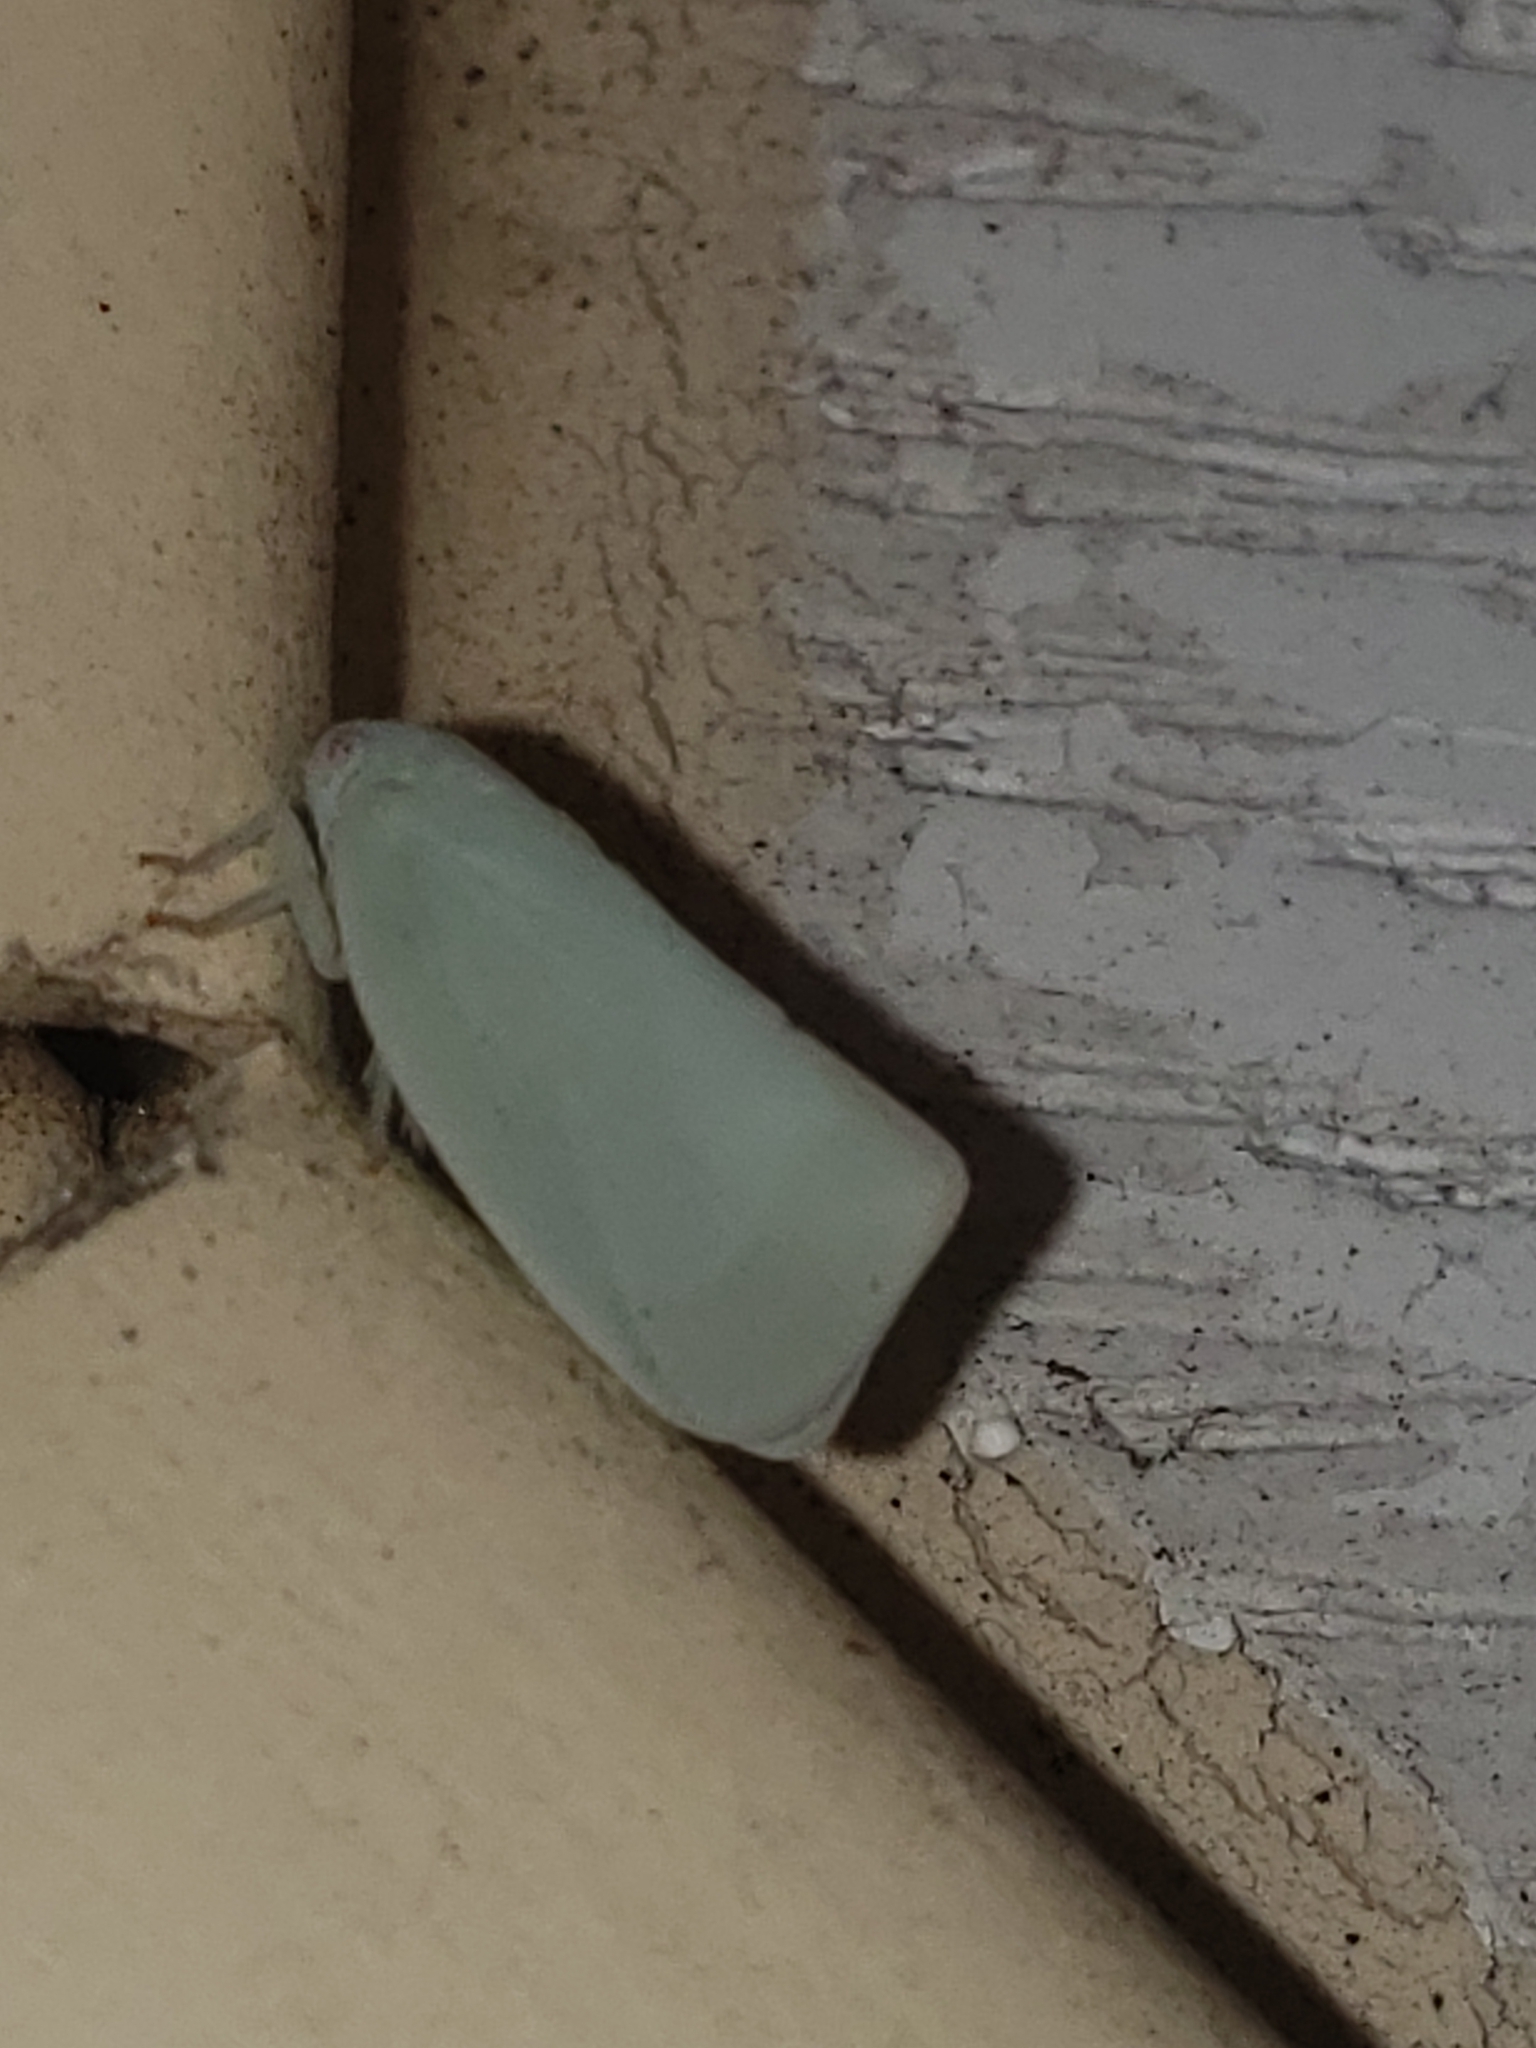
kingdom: Animalia
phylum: Arthropoda
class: Insecta
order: Hemiptera
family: Flatidae
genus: Flatormenis
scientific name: Flatormenis proxima
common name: Northern flatid planthopper
